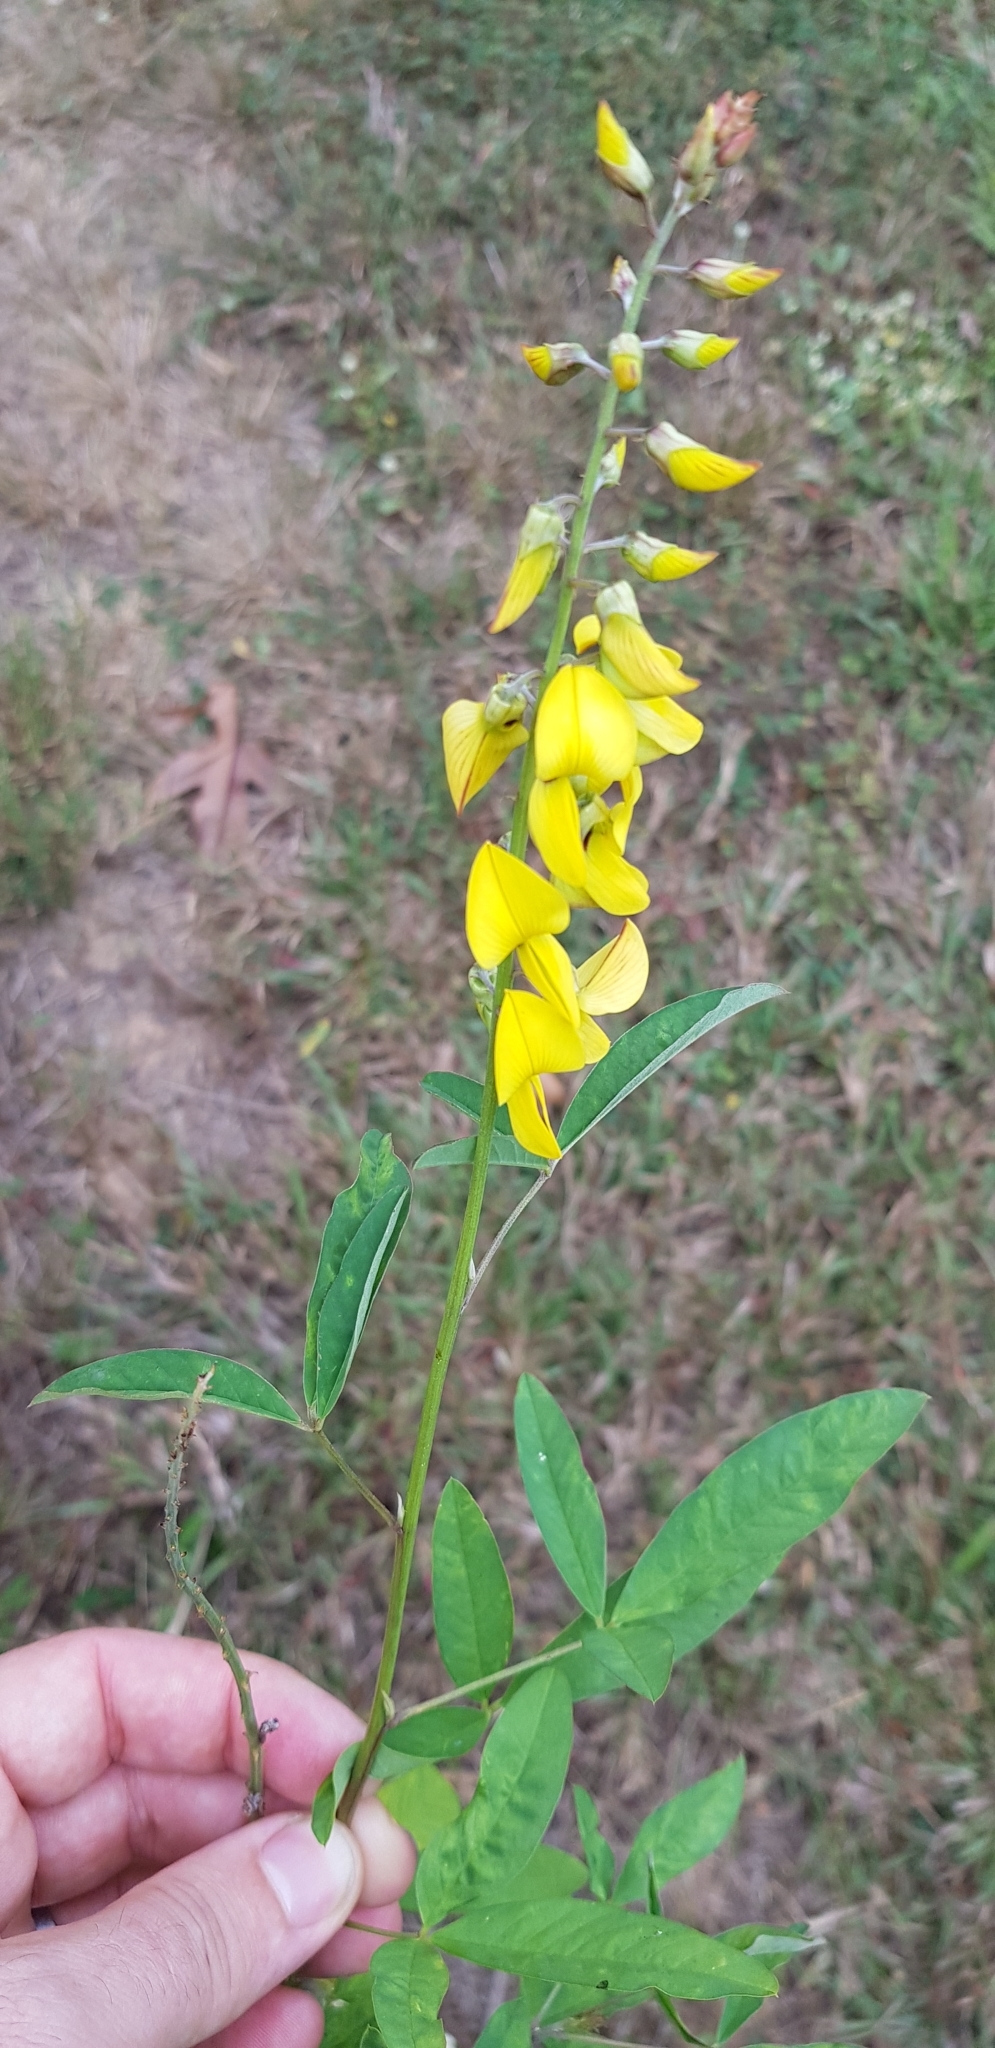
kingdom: Plantae
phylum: Tracheophyta
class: Magnoliopsida
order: Fabales
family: Fabaceae
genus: Crotalaria
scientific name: Crotalaria trichotoma
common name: West indian rattlebox
